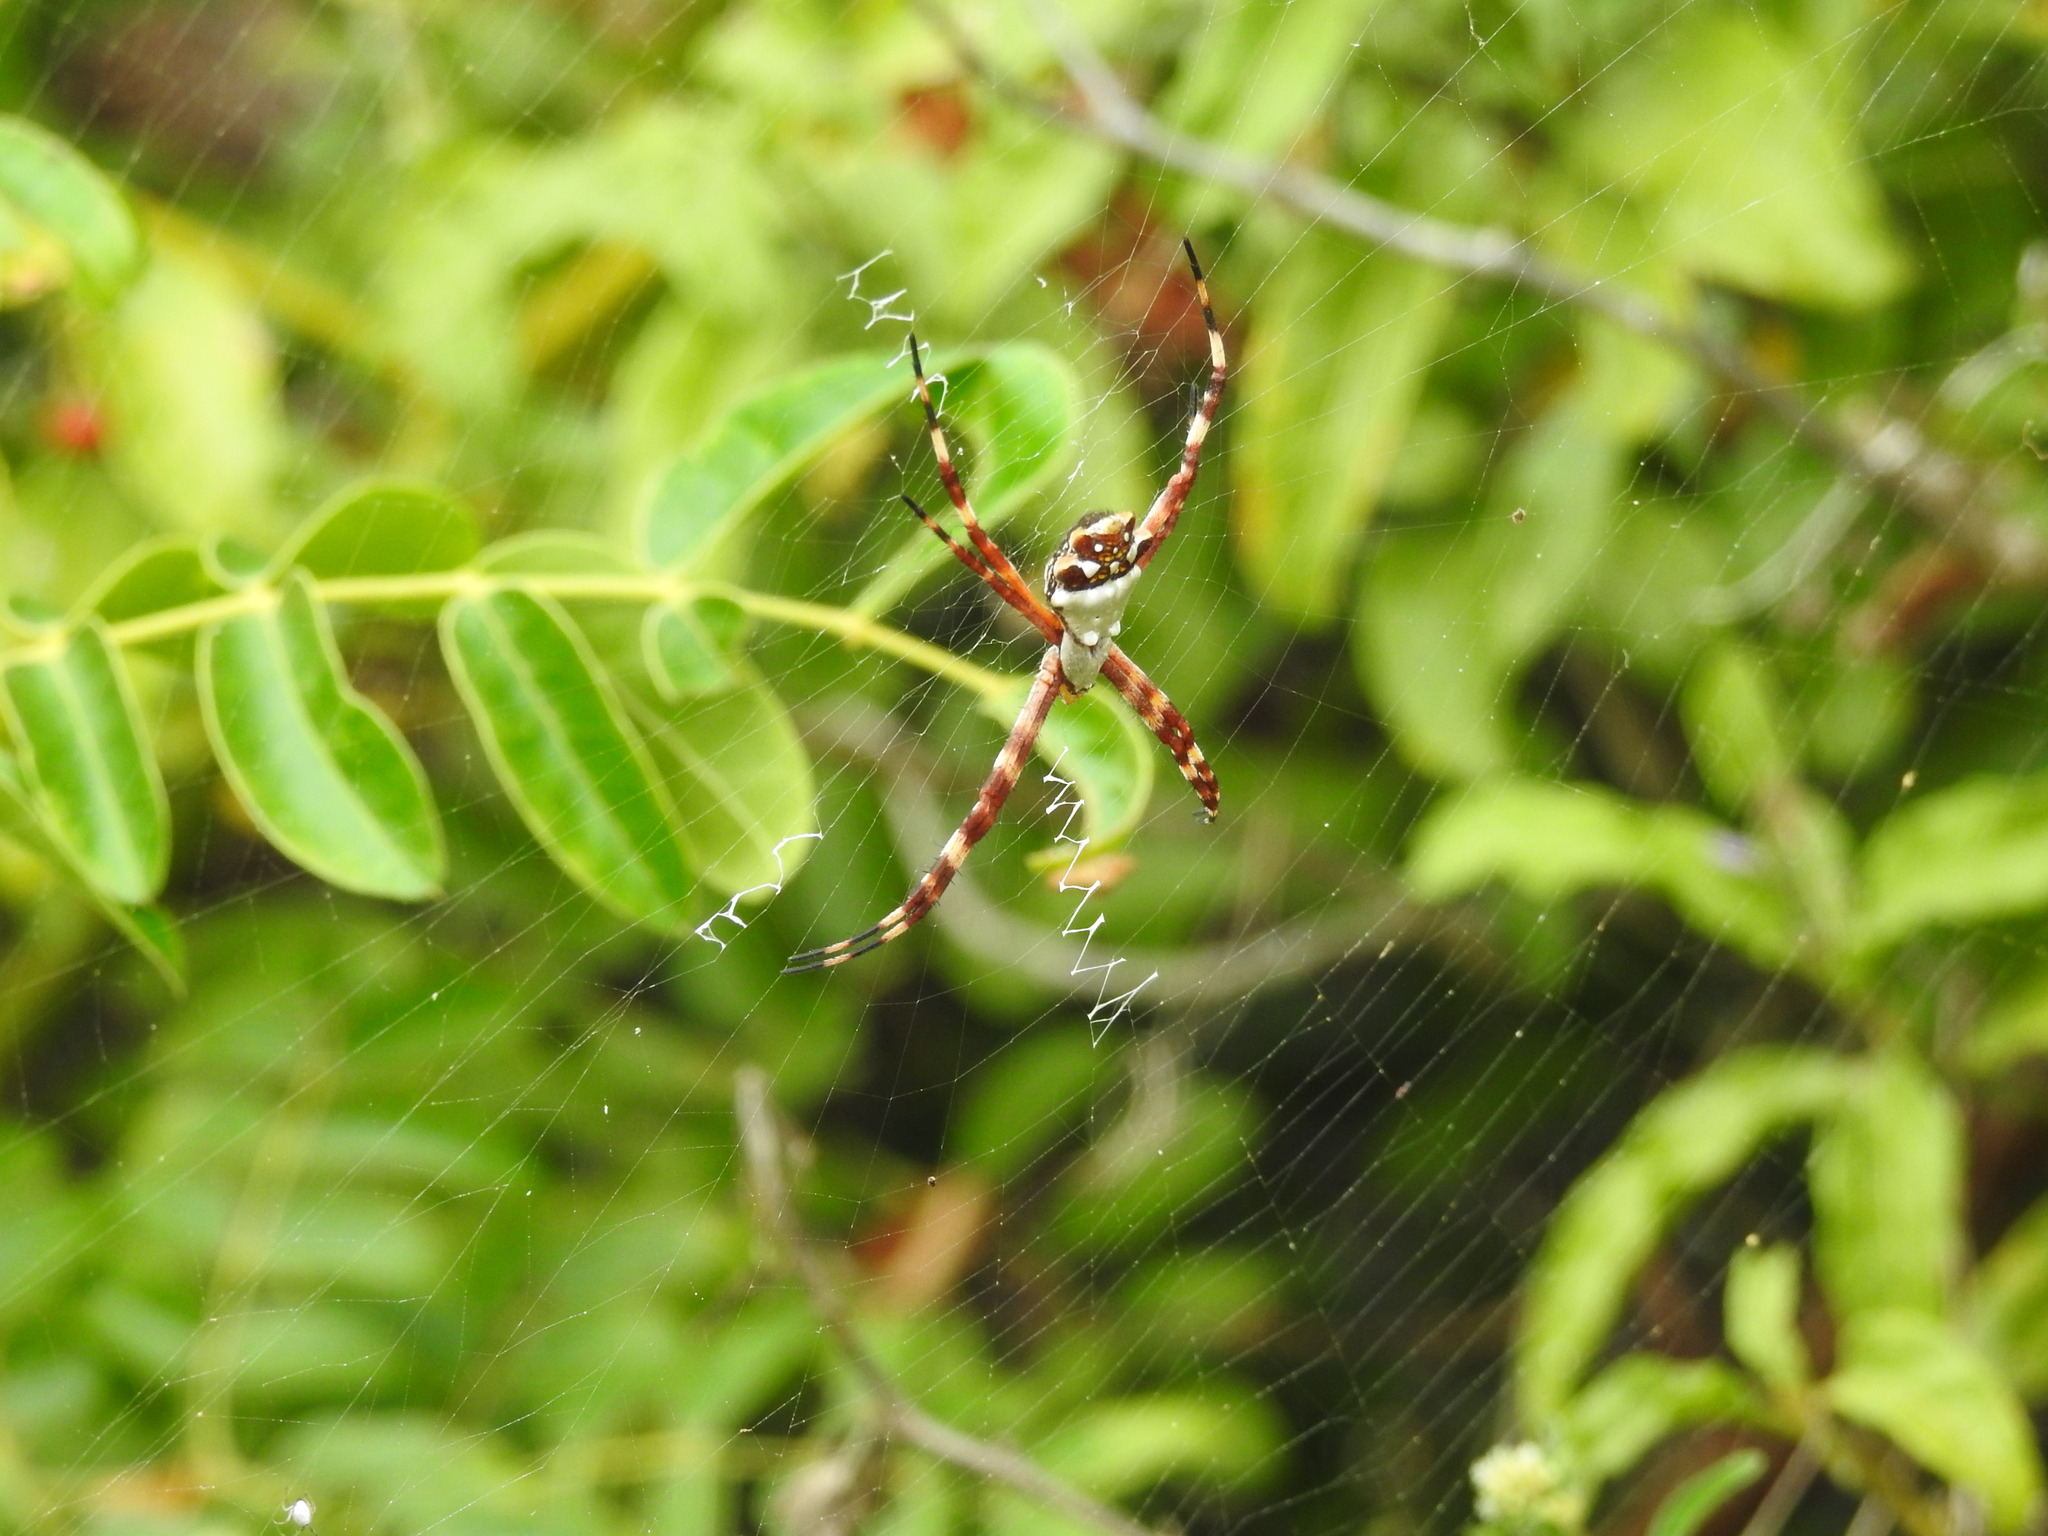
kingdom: Animalia
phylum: Arthropoda
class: Arachnida
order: Araneae
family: Araneidae
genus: Argiope
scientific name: Argiope argentata
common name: Orb weavers
